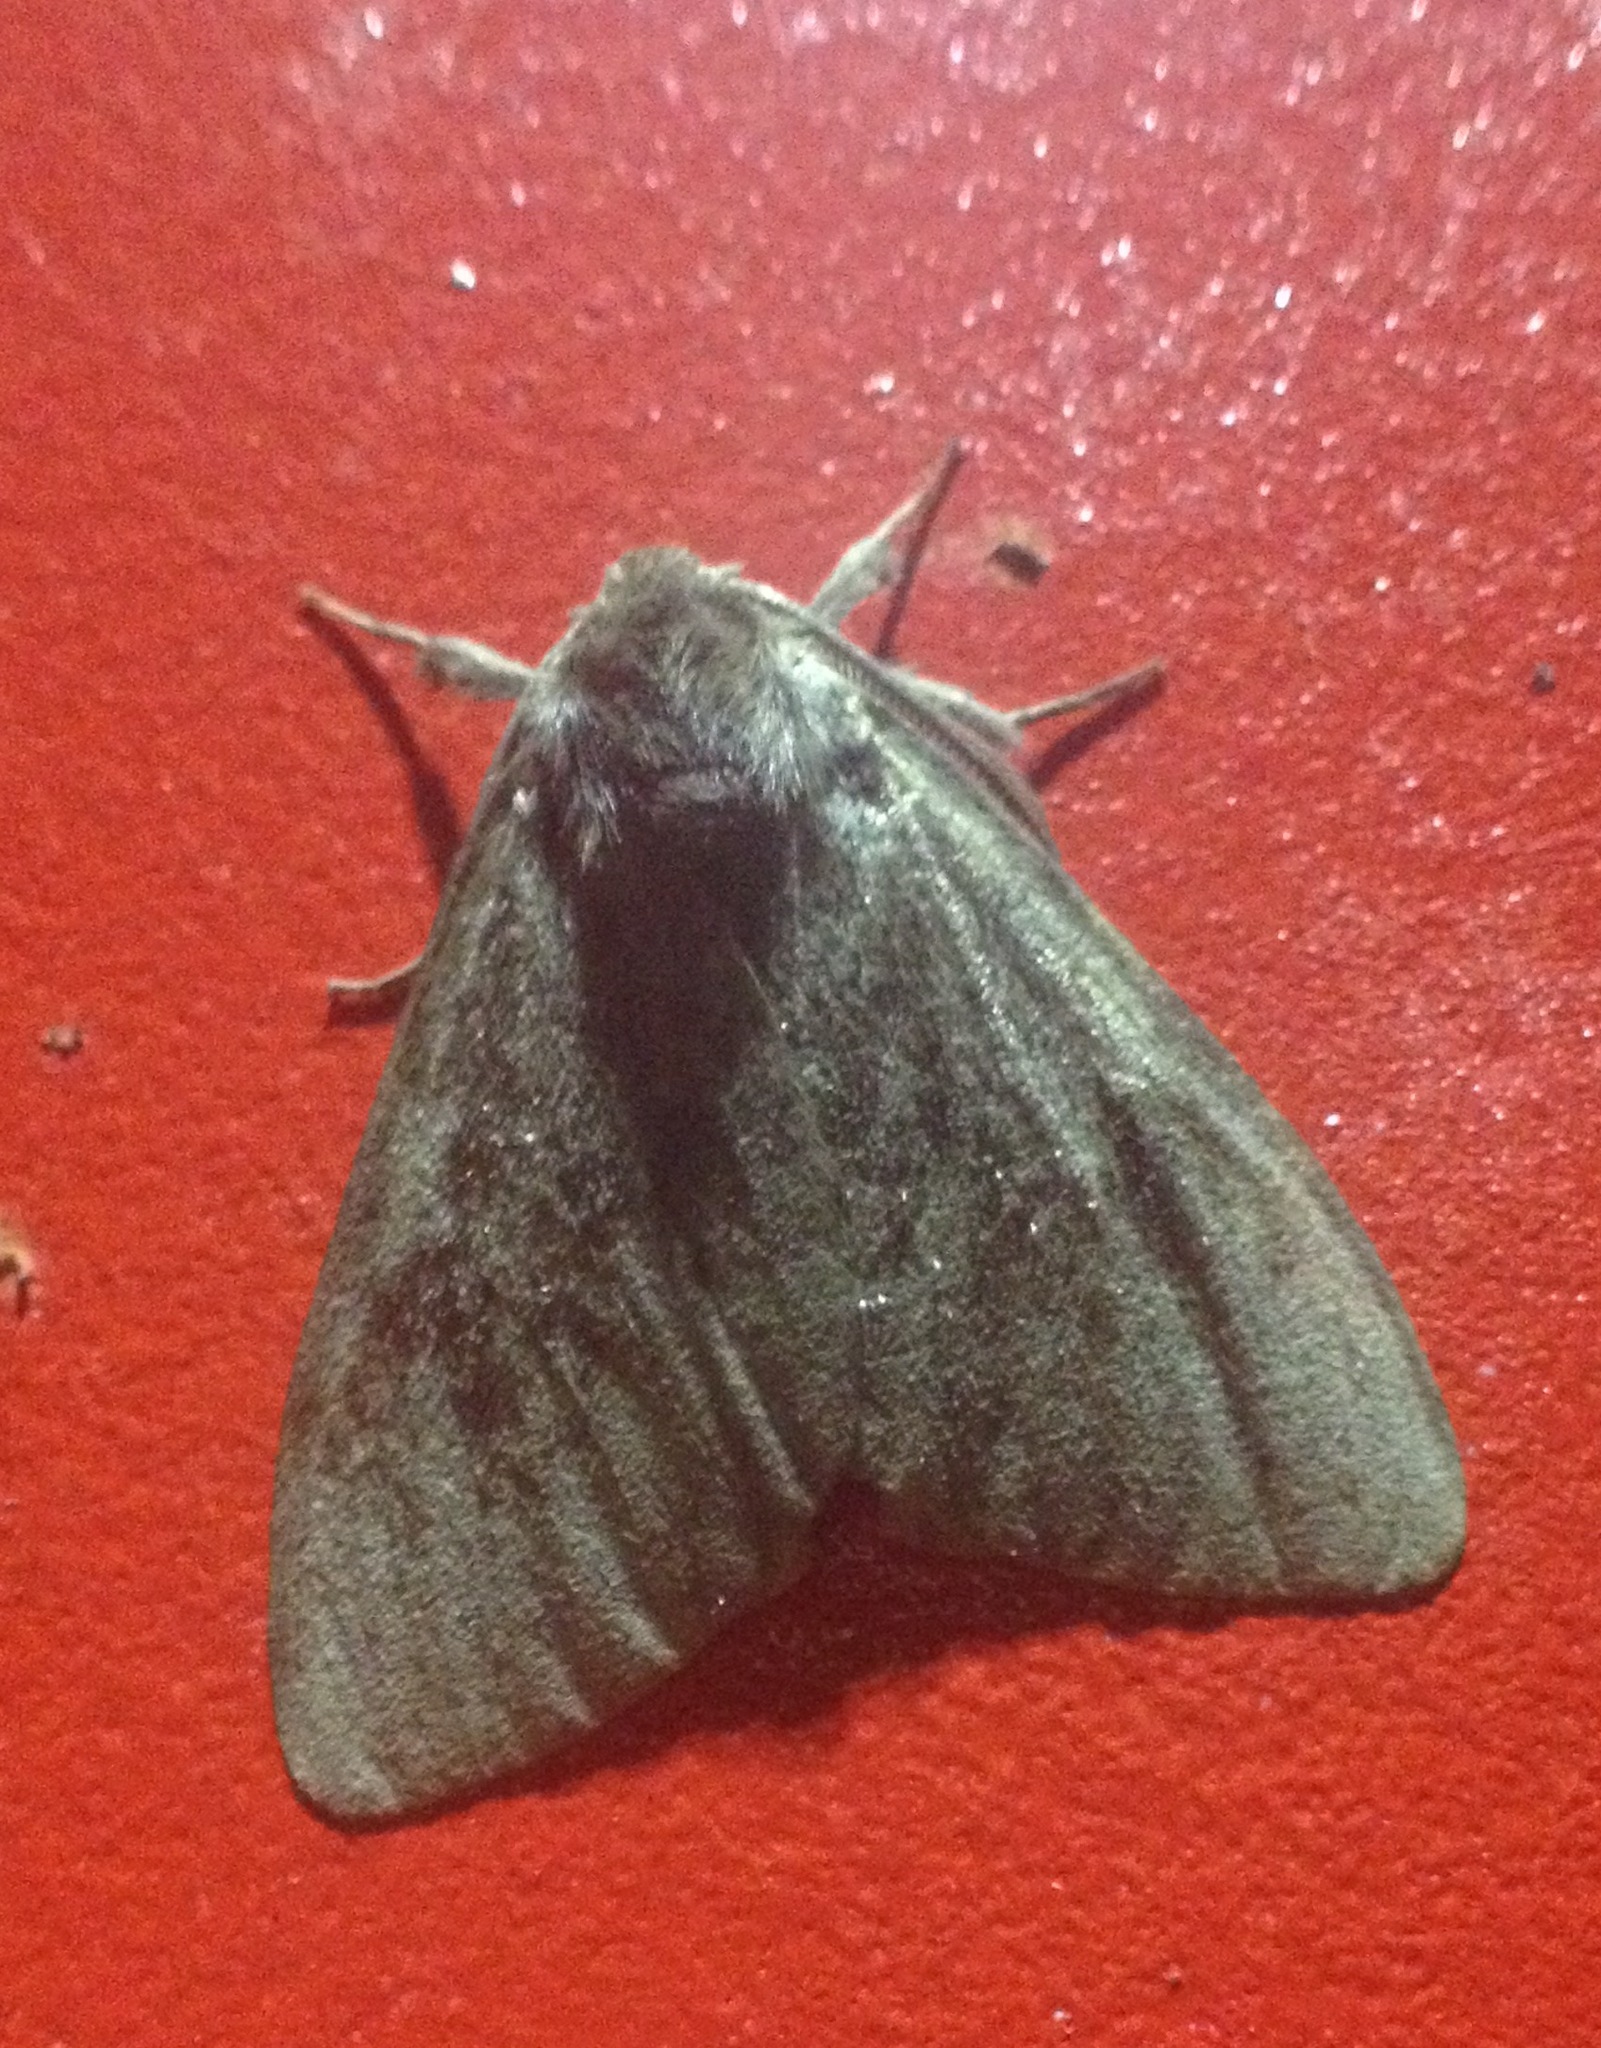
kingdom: Animalia
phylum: Arthropoda
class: Insecta
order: Lepidoptera
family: Erebidae
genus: Lymantria
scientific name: Lymantria monacha
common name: Black arches
